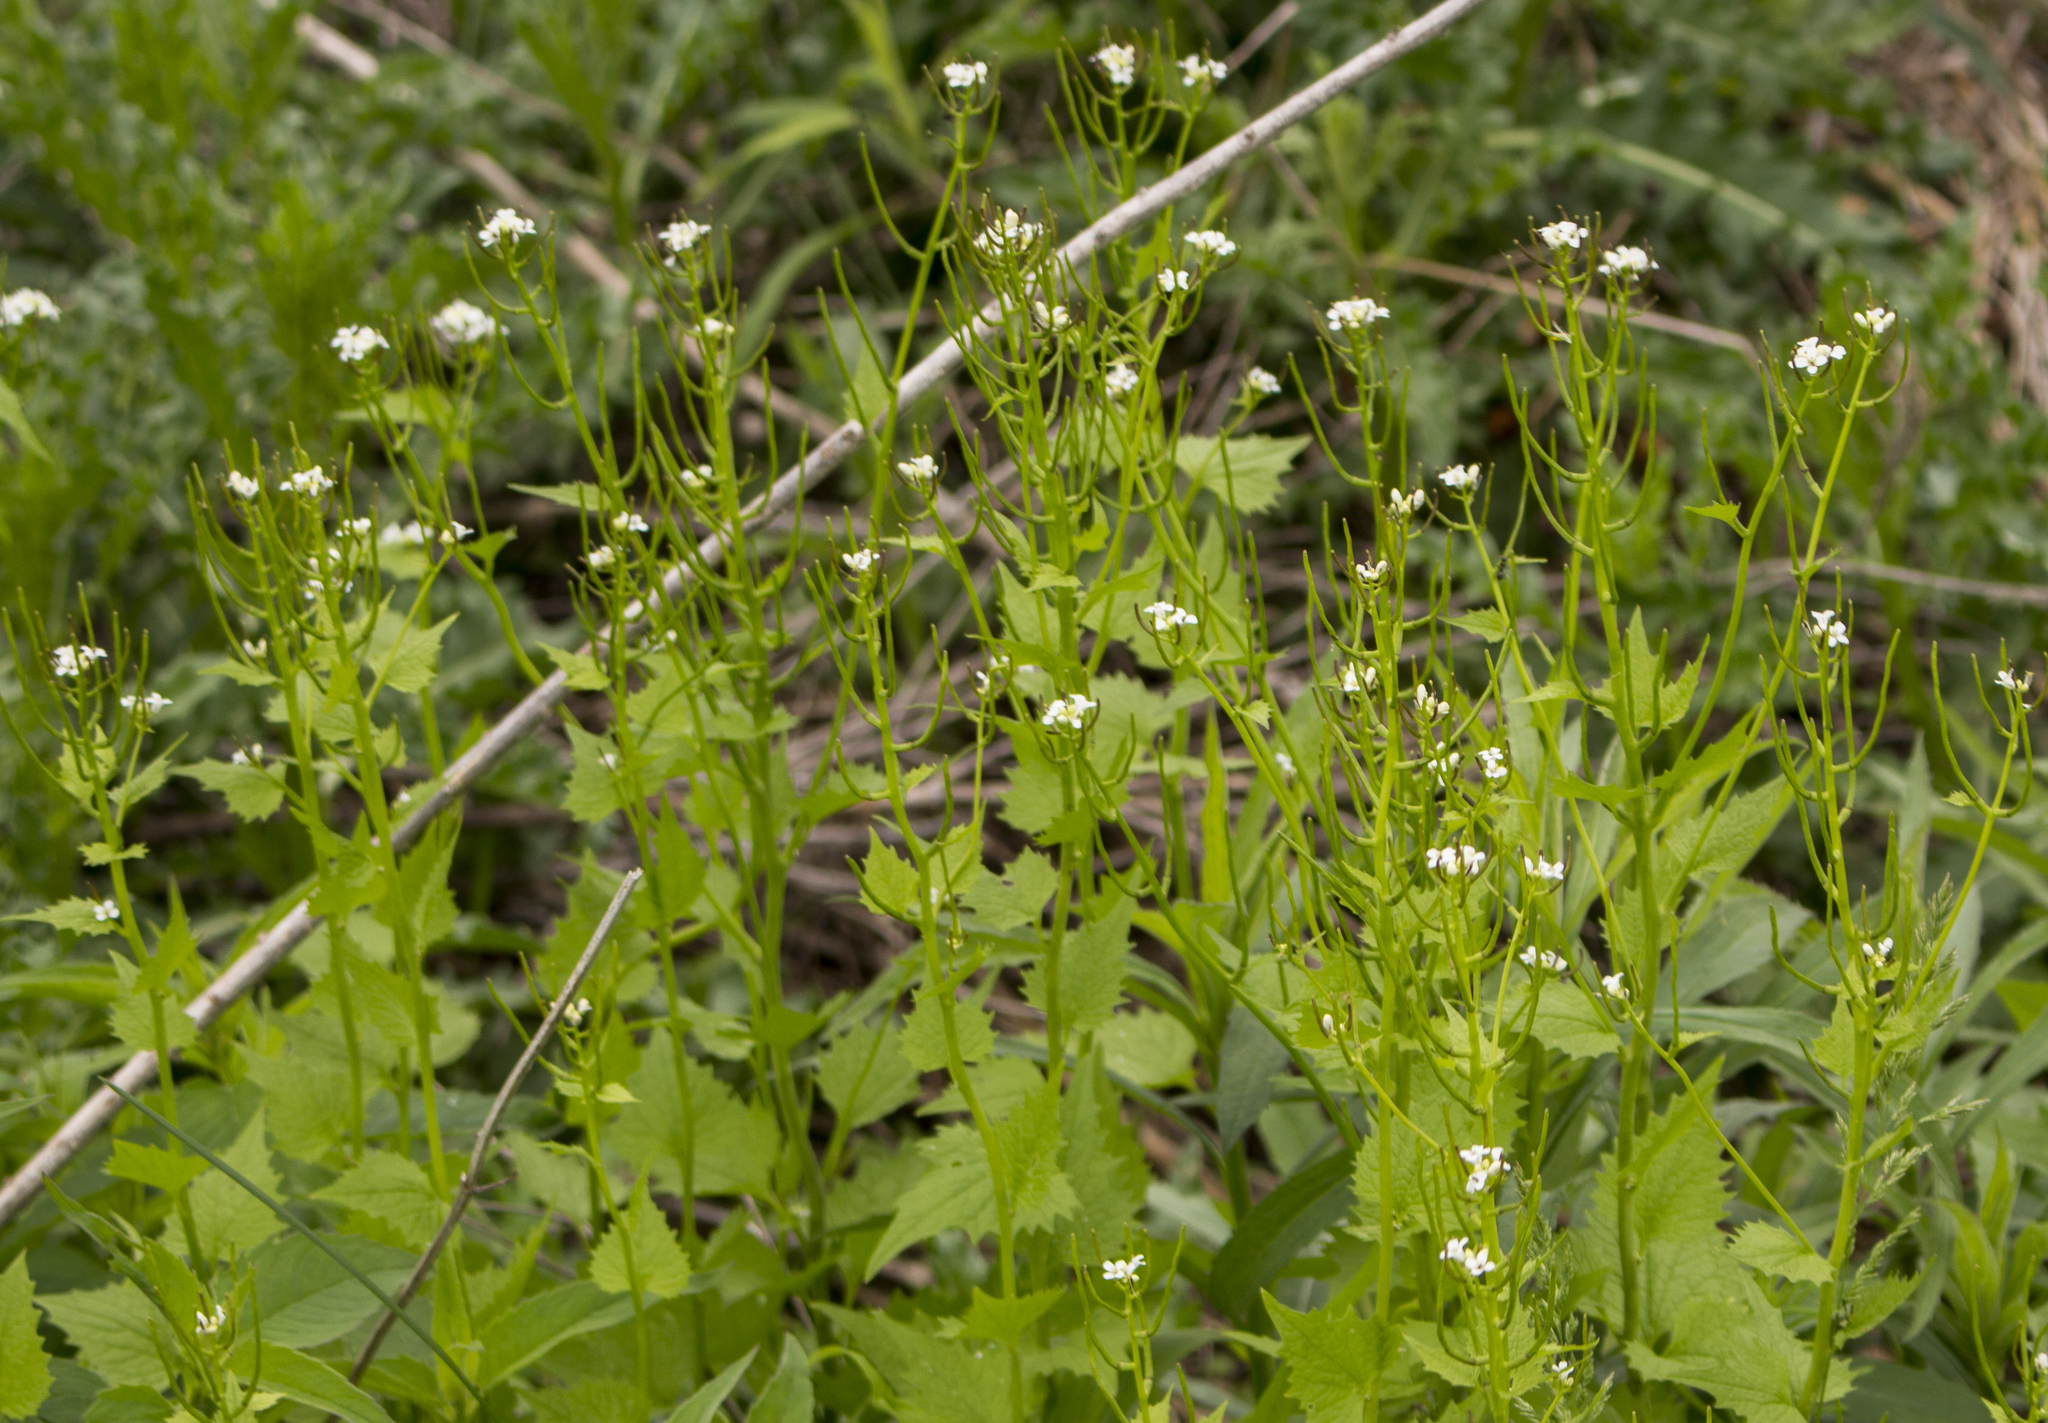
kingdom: Plantae
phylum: Tracheophyta
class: Magnoliopsida
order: Brassicales
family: Brassicaceae
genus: Alliaria
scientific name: Alliaria petiolata
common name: Garlic mustard
